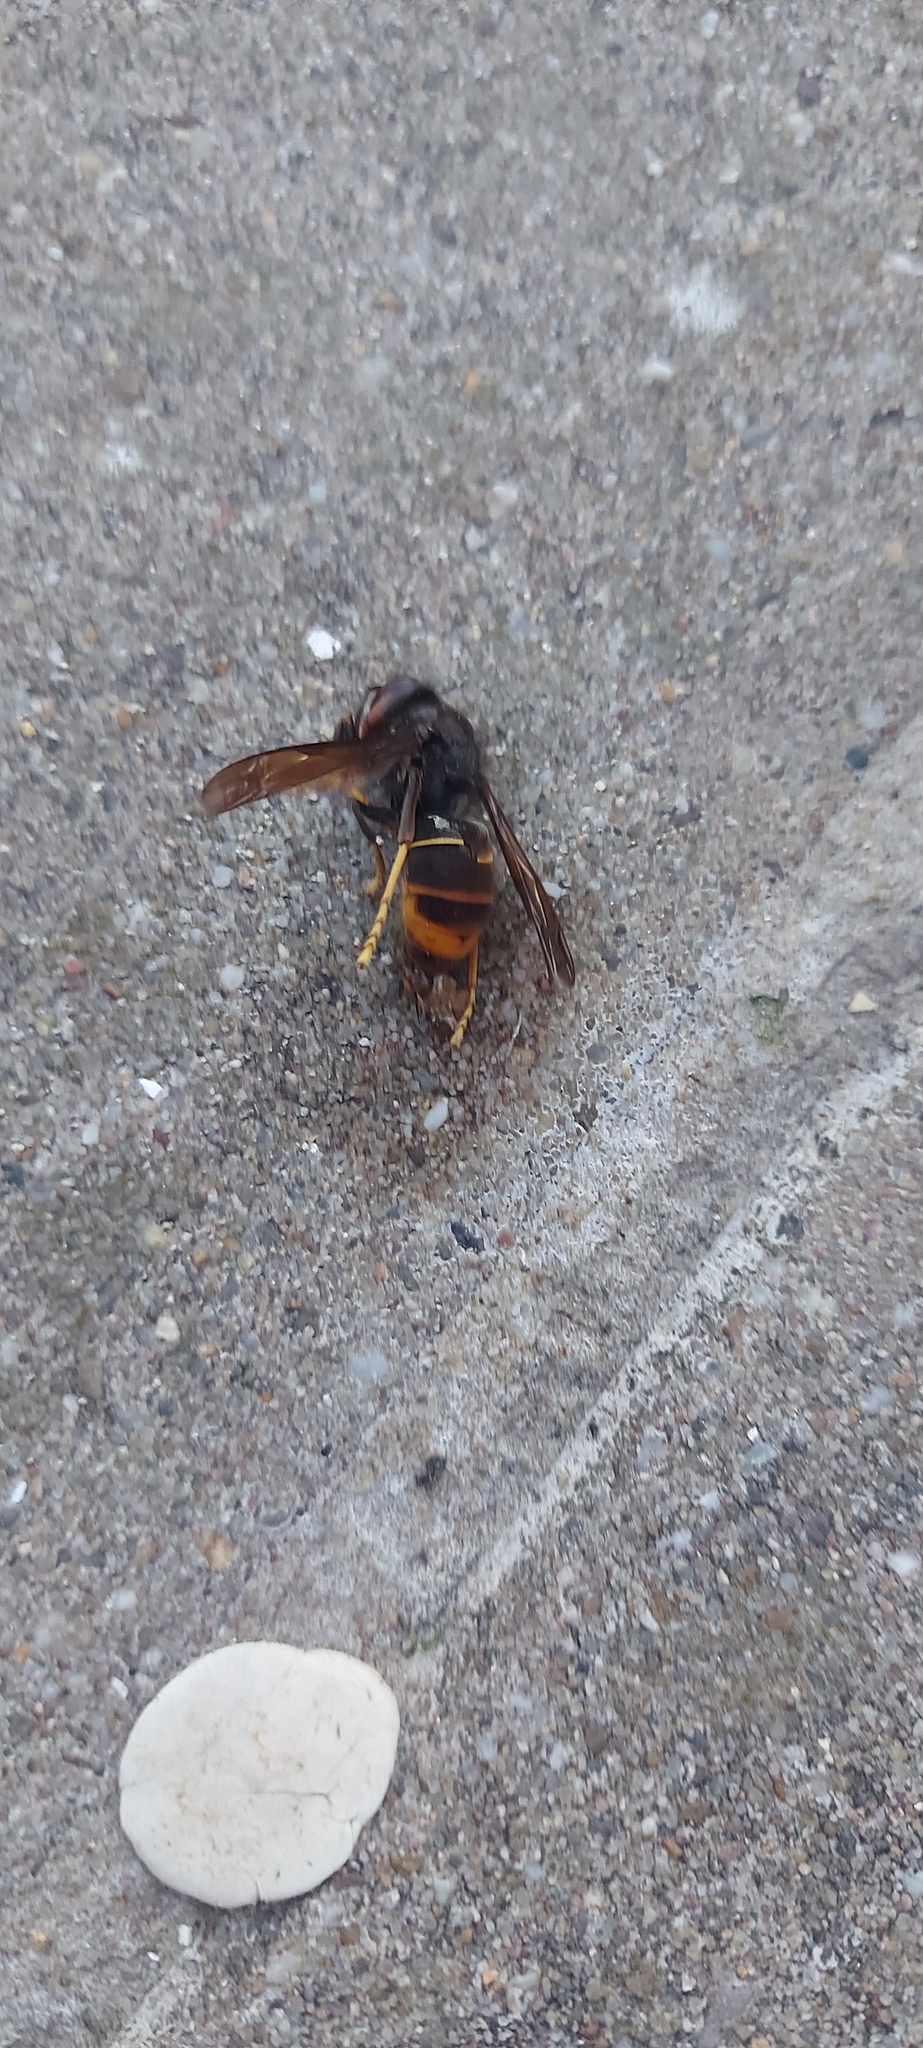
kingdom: Animalia
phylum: Arthropoda
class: Insecta
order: Hymenoptera
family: Vespidae
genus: Vespa
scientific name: Vespa velutina
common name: Asian hornet
